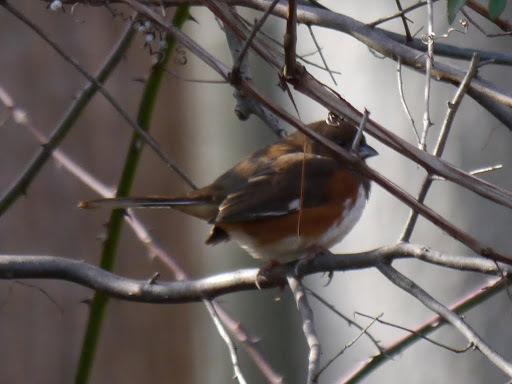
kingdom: Animalia
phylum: Chordata
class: Aves
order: Passeriformes
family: Passerellidae
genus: Pipilo
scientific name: Pipilo erythrophthalmus
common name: Eastern towhee
